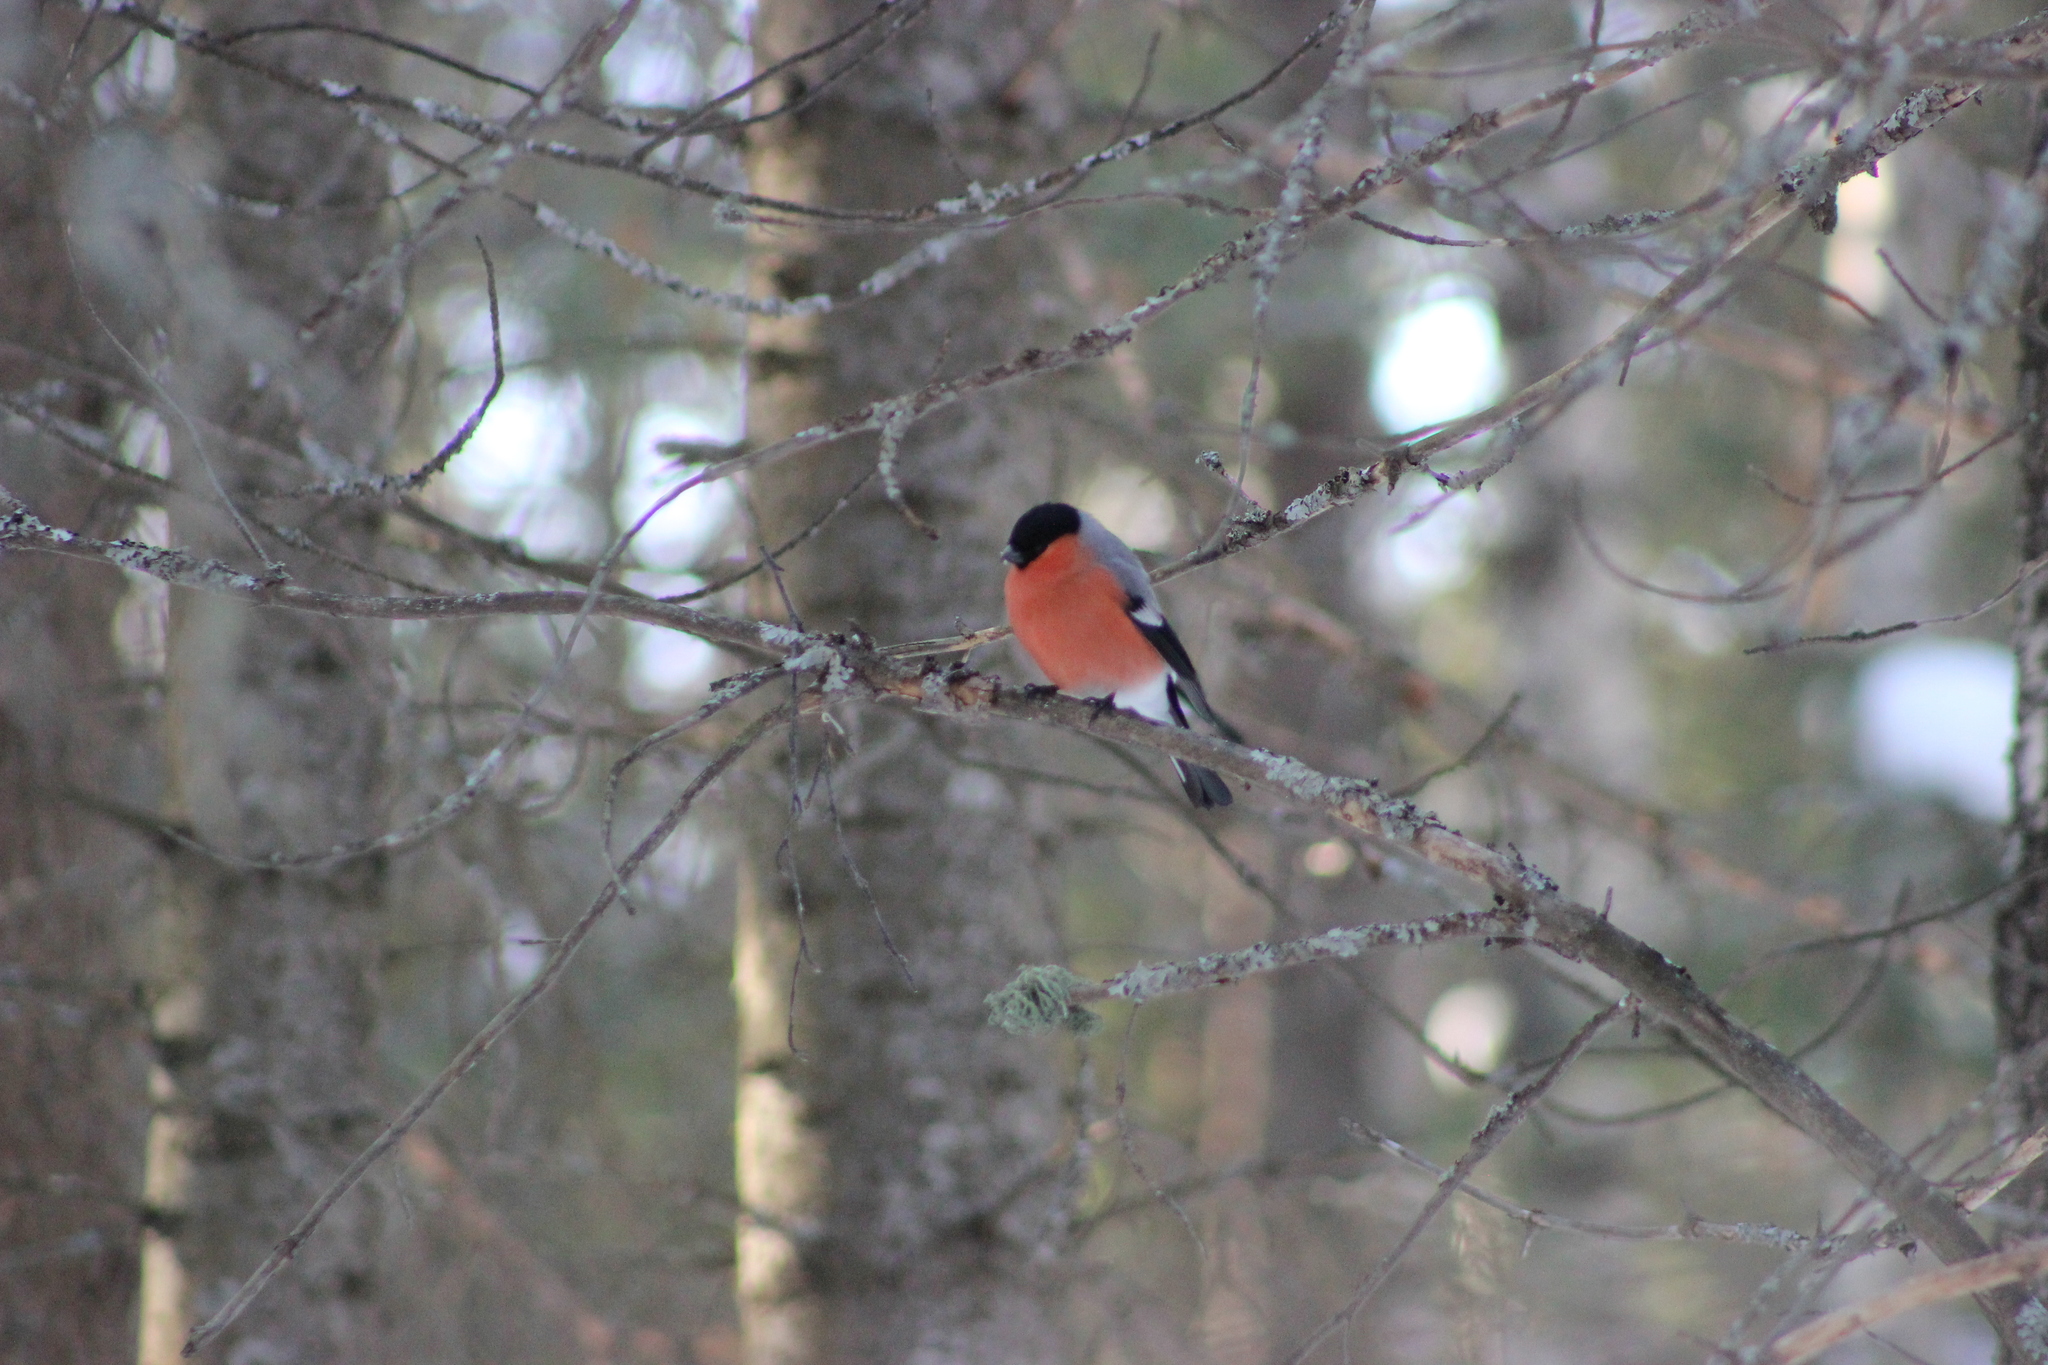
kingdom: Animalia
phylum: Chordata
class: Aves
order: Passeriformes
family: Fringillidae
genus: Pyrrhula
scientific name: Pyrrhula pyrrhula
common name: Eurasian bullfinch
